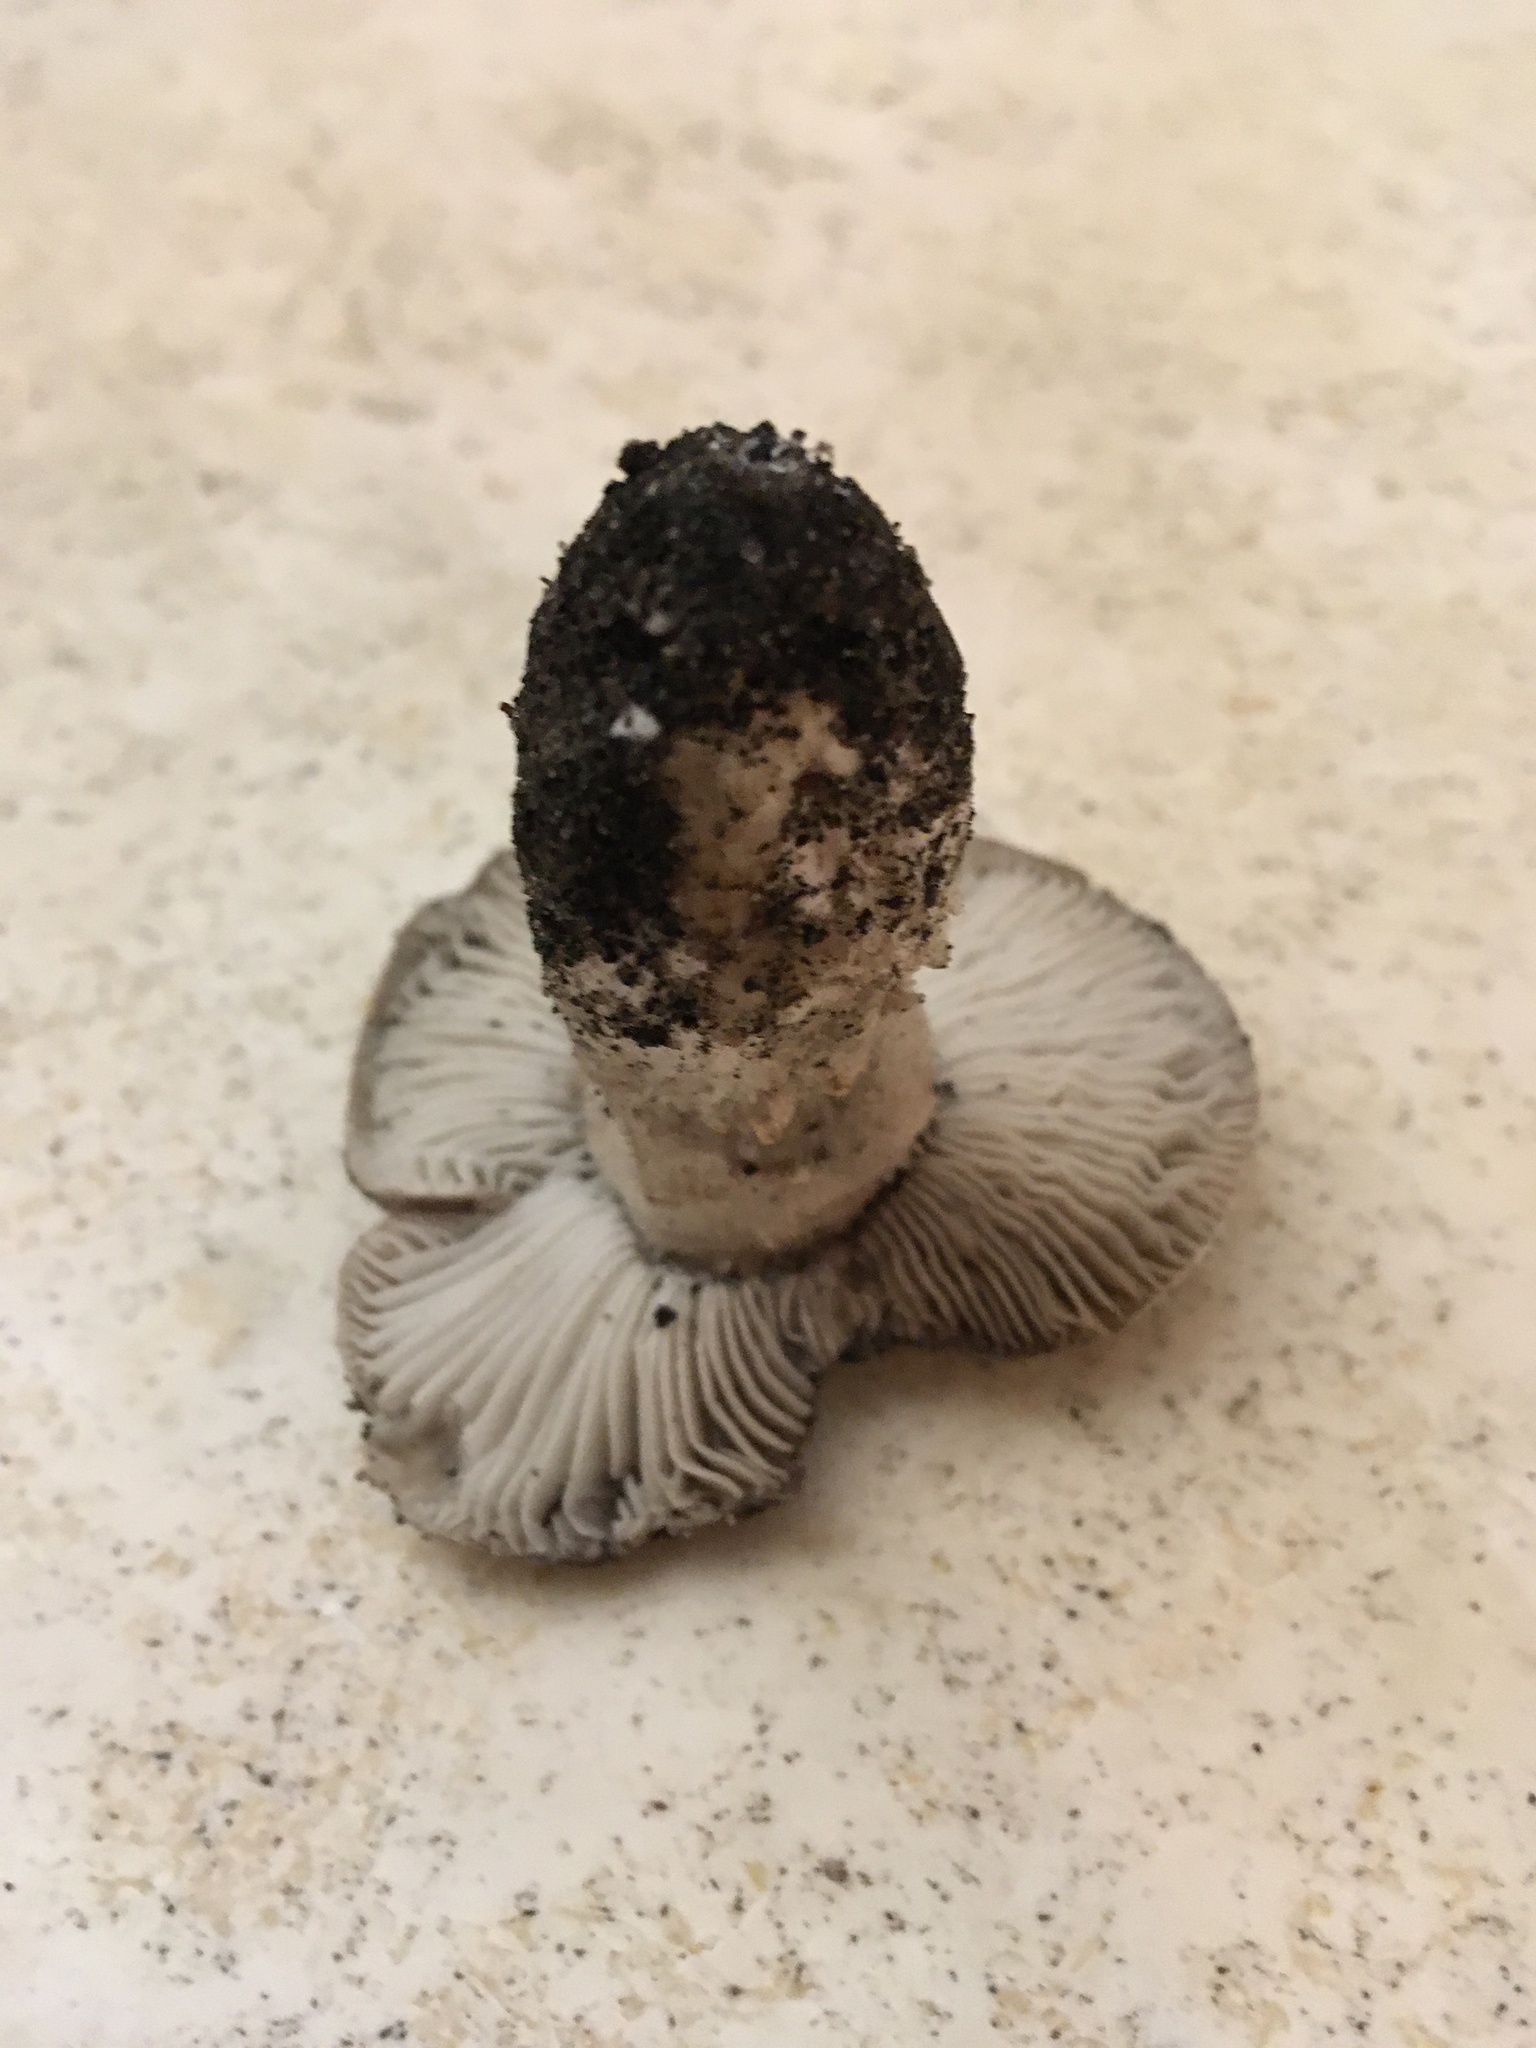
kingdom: Fungi
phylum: Basidiomycota
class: Agaricomycetes
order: Agaricales
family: Tricholomataceae
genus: Tricholoma
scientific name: Tricholoma portentosum
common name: Coalman
